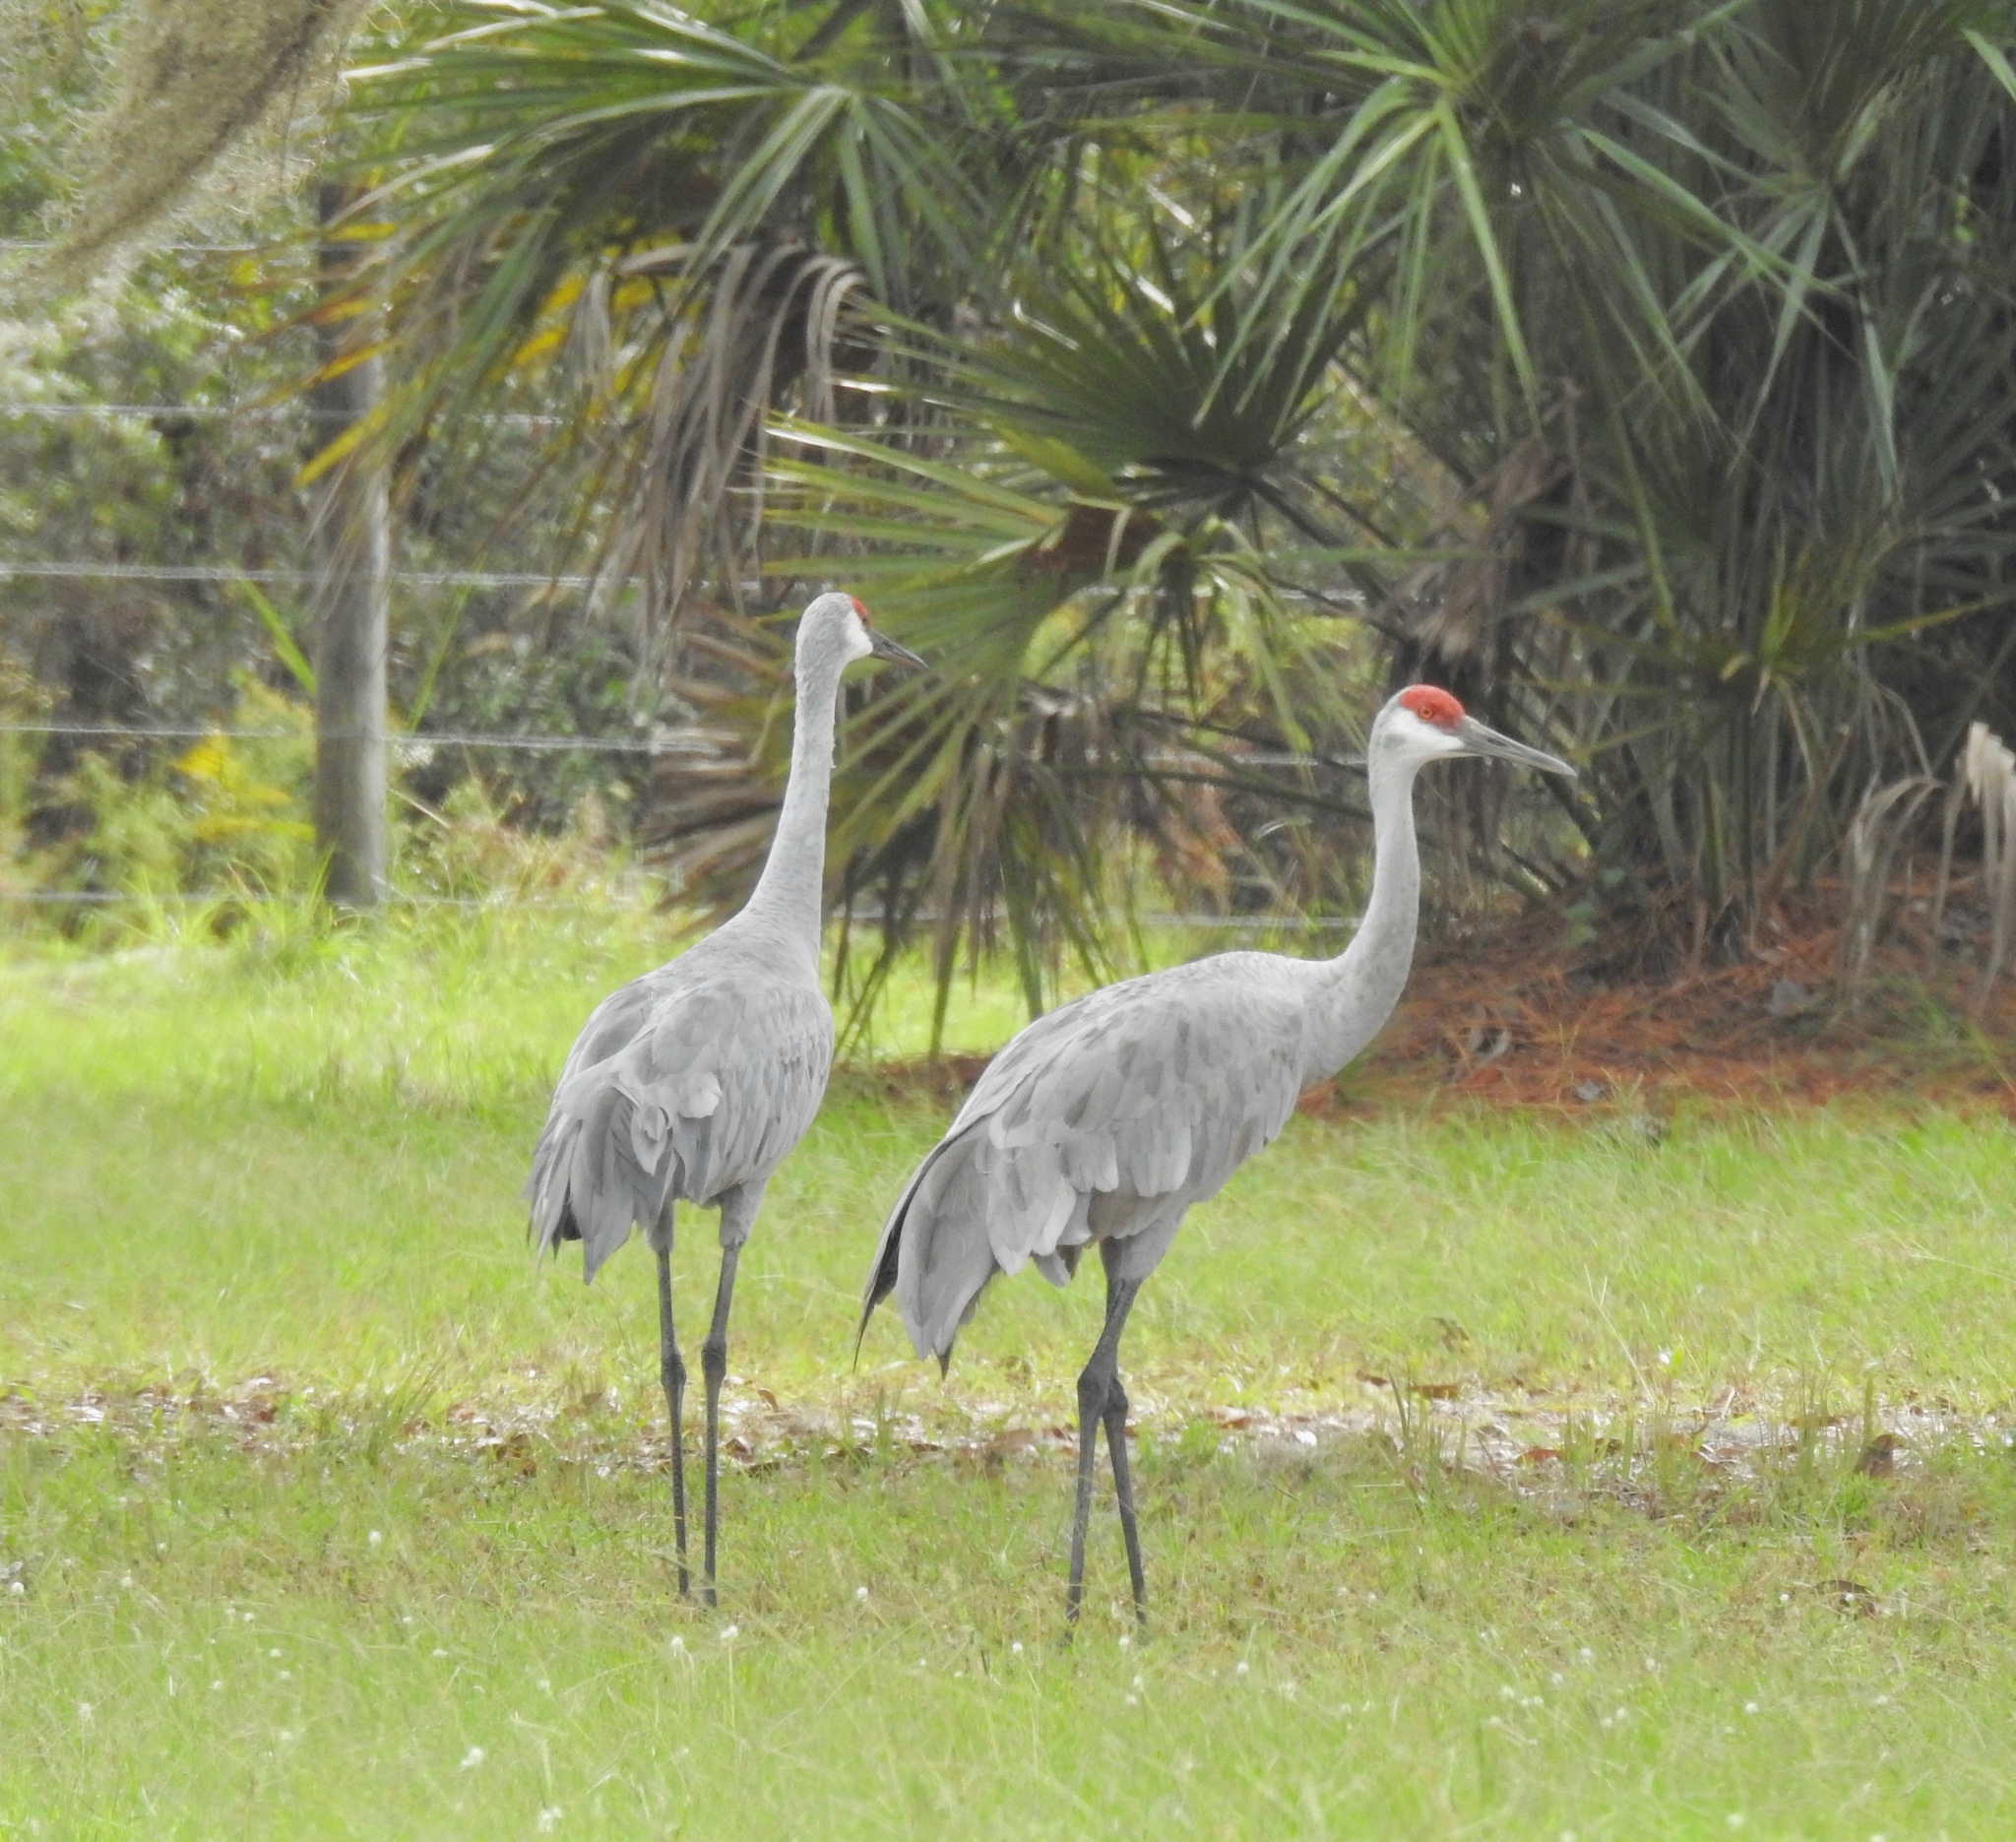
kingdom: Animalia
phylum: Chordata
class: Aves
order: Gruiformes
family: Gruidae
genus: Grus
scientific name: Grus canadensis
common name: Sandhill crane
